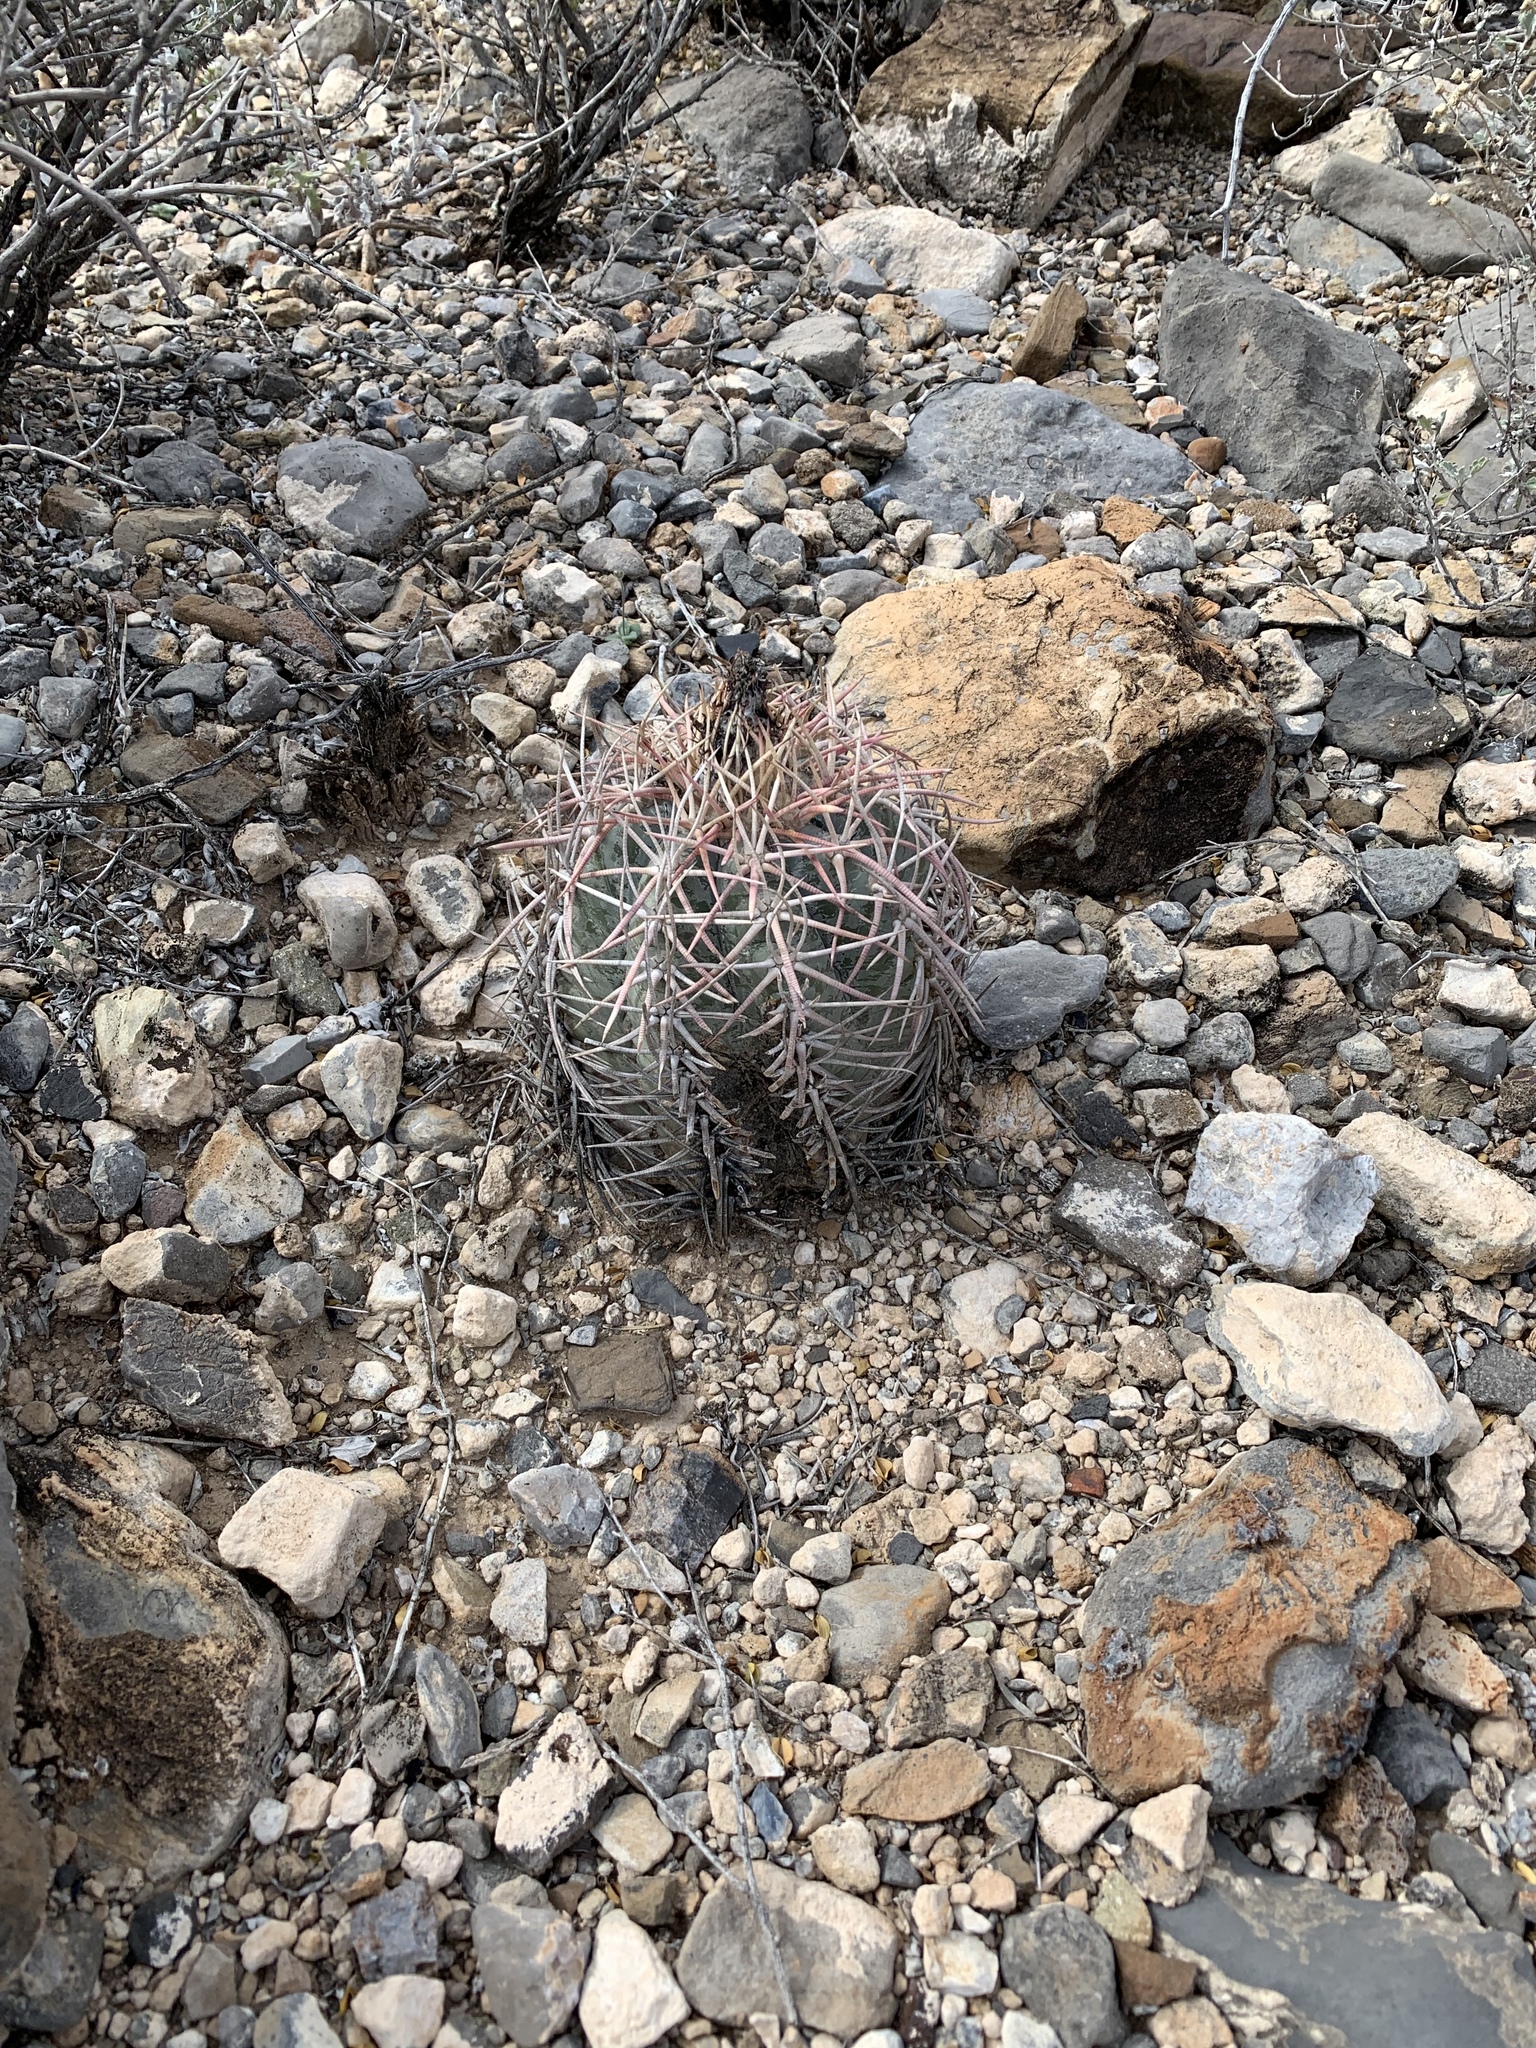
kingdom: Plantae
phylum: Tracheophyta
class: Magnoliopsida
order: Caryophyllales
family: Cactaceae
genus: Echinocactus
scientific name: Echinocactus horizonthalonius
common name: Devilshead
